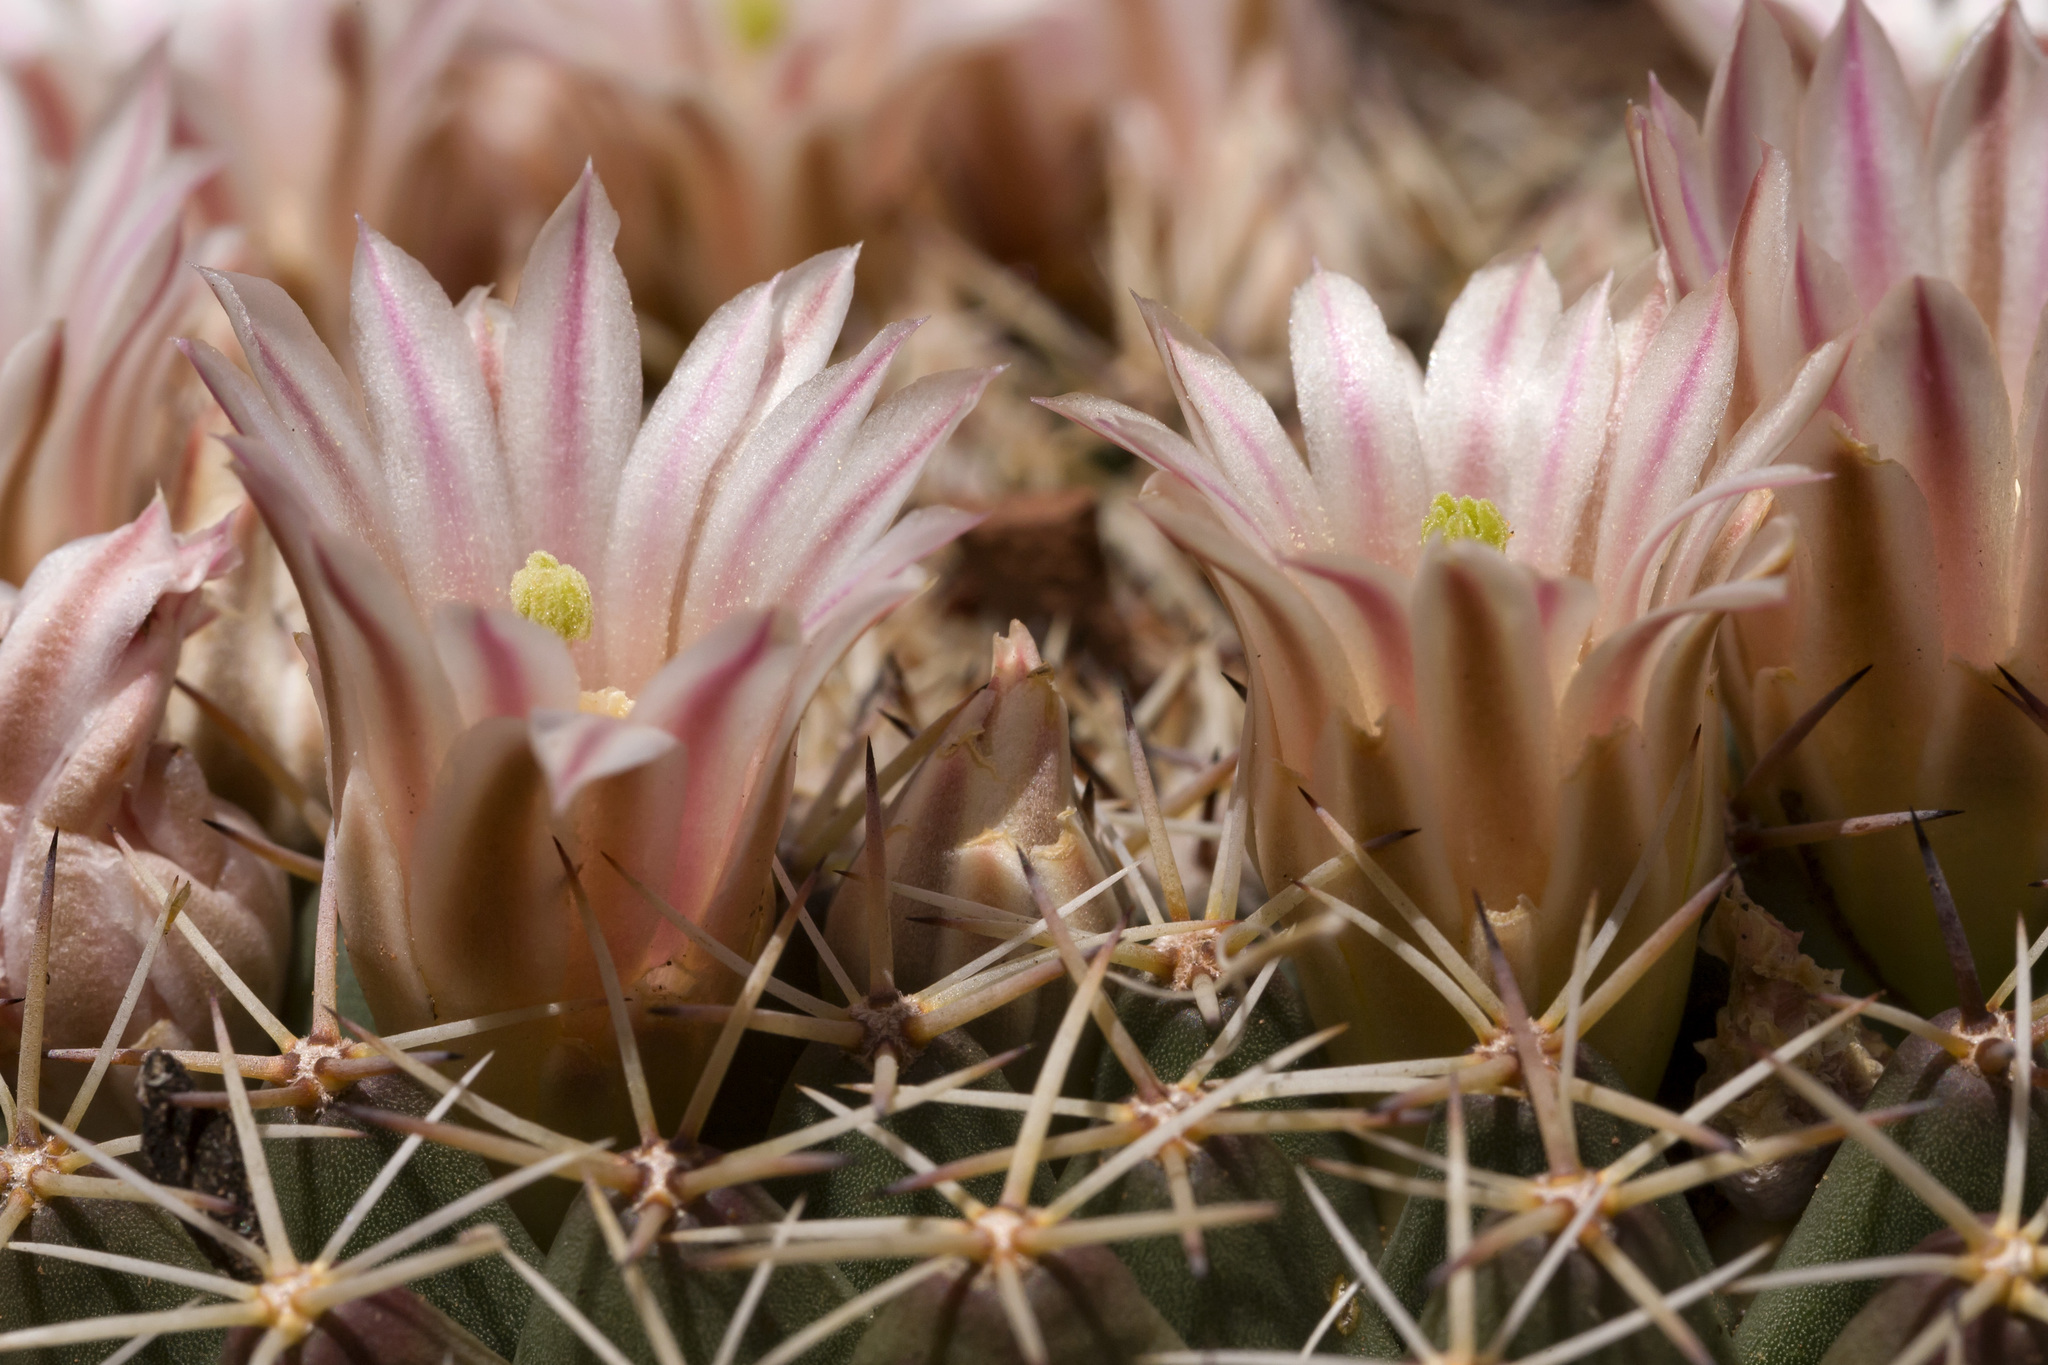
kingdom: Plantae
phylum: Tracheophyta
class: Magnoliopsida
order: Caryophyllales
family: Cactaceae
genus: Mammillaria
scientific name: Mammillaria heyderi
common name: Little nipple cactus
